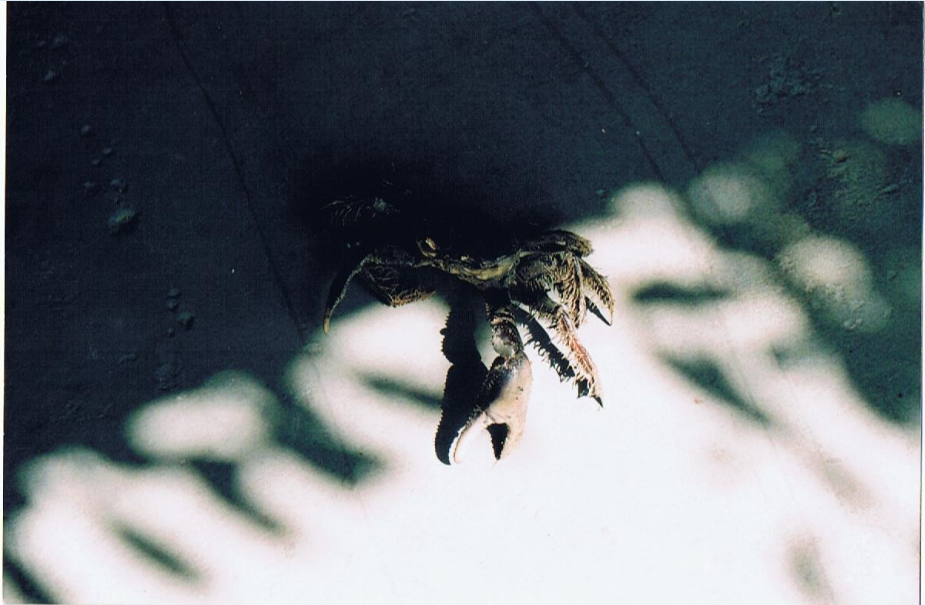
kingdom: Animalia
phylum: Arthropoda
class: Malacostraca
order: Decapoda
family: Ocypodidae
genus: Ucides
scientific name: Ucides cordatus
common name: Swamp ghost crab
